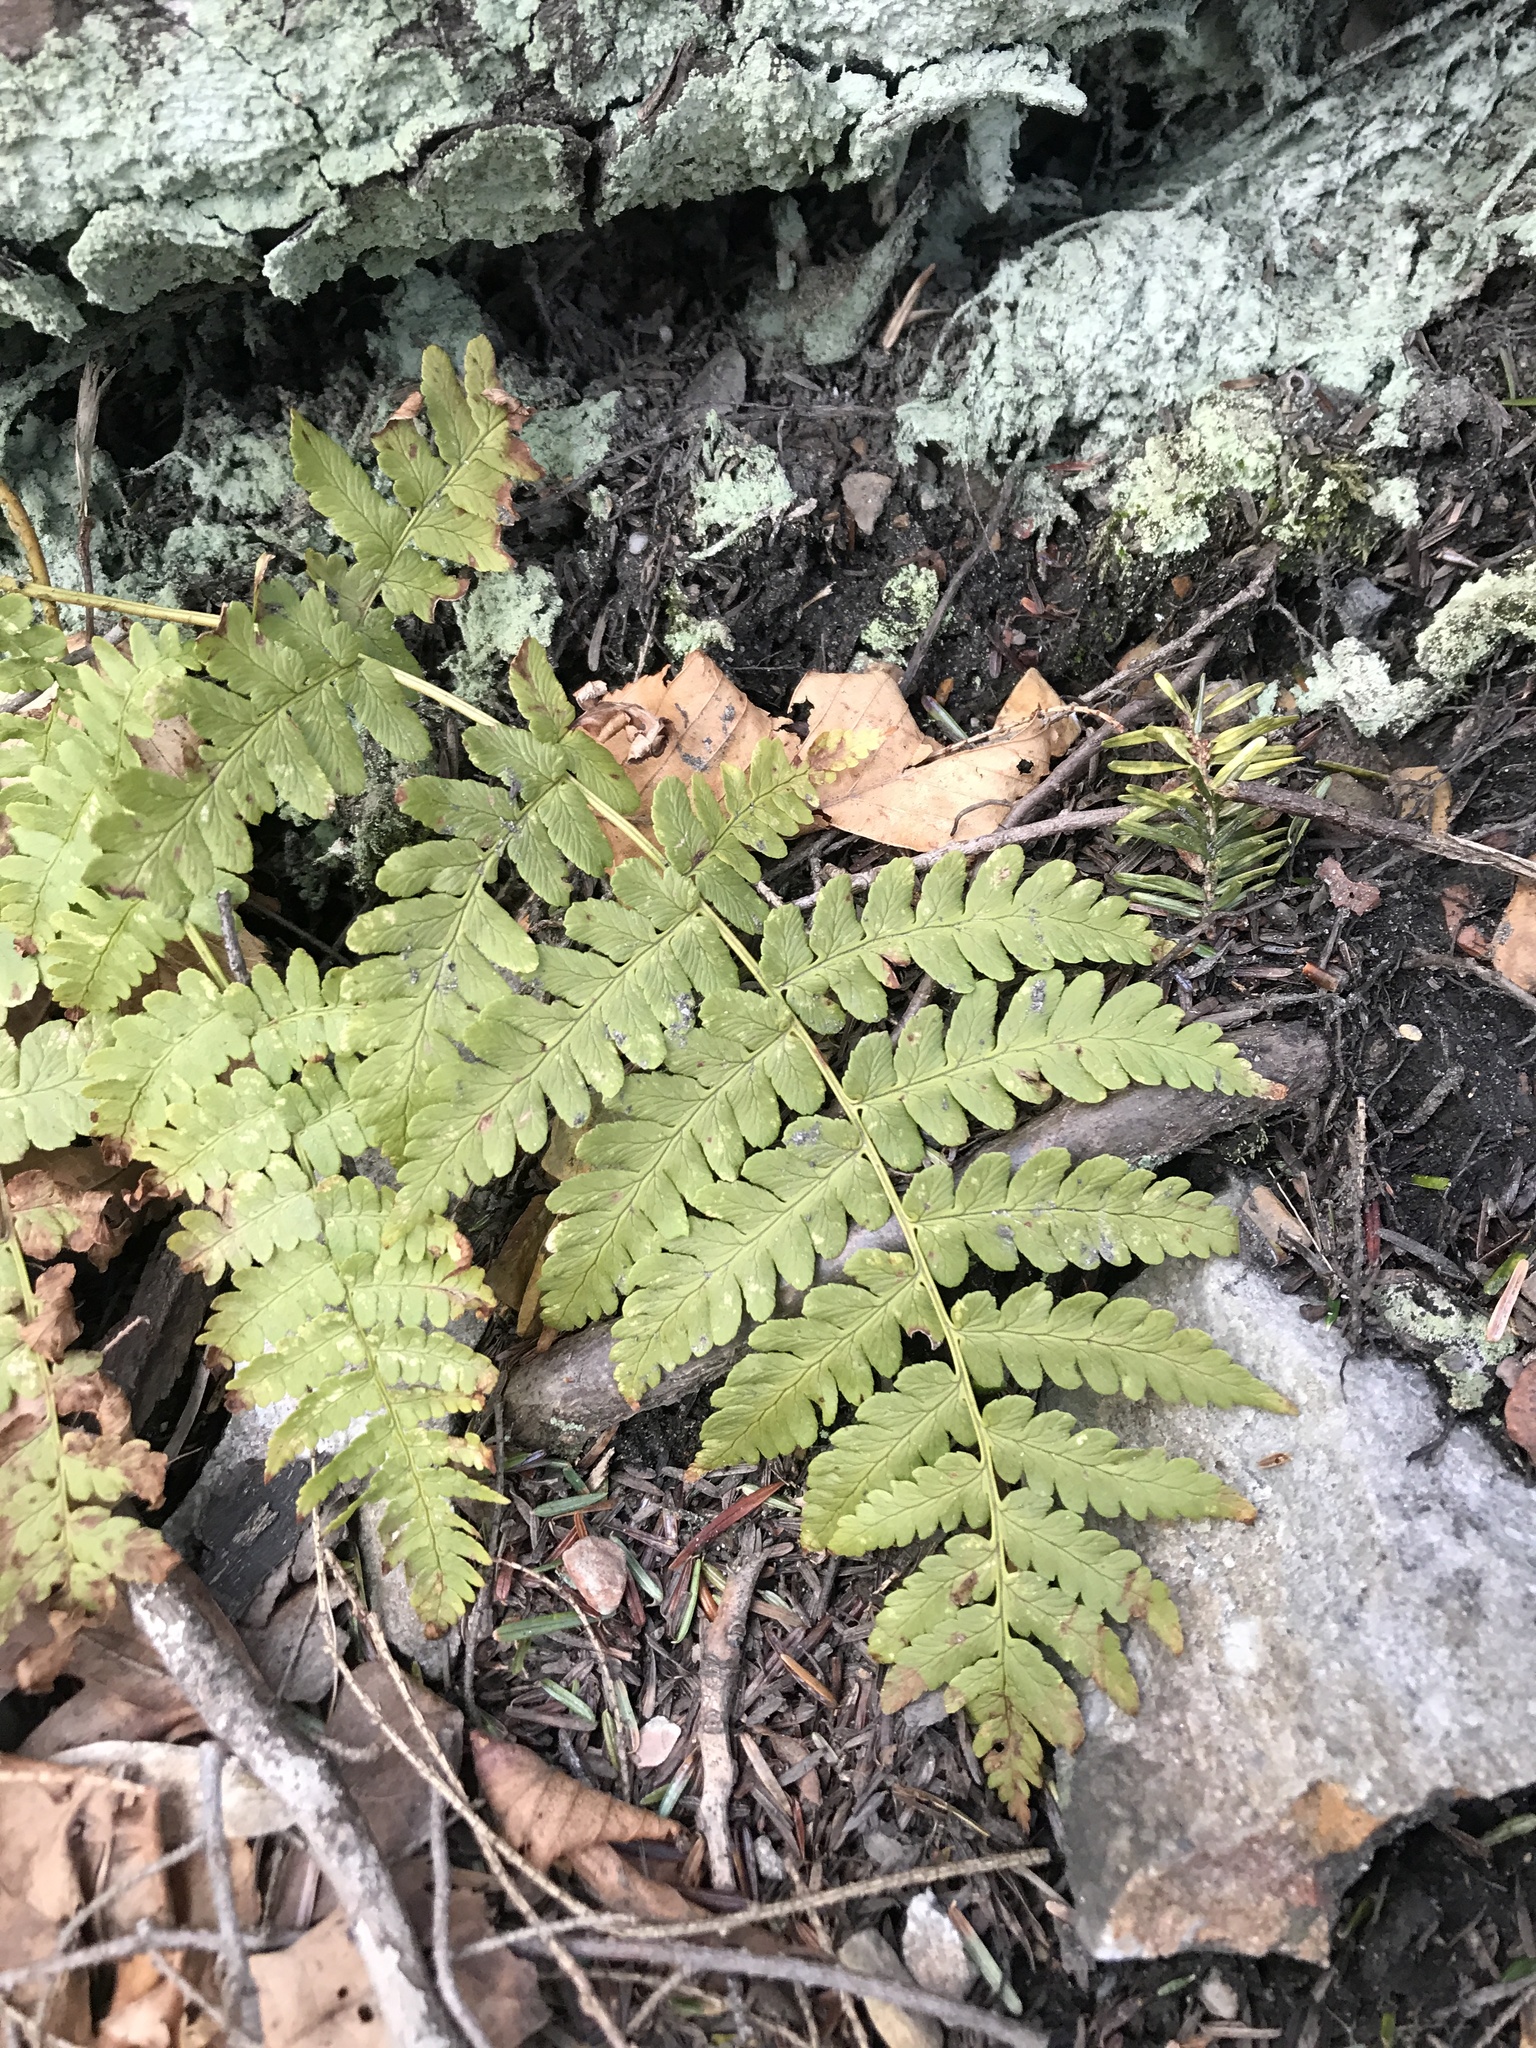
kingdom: Plantae
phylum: Tracheophyta
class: Polypodiopsida
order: Polypodiales
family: Dryopteridaceae
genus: Dryopteris
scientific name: Dryopteris marginalis
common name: Marginal wood fern
